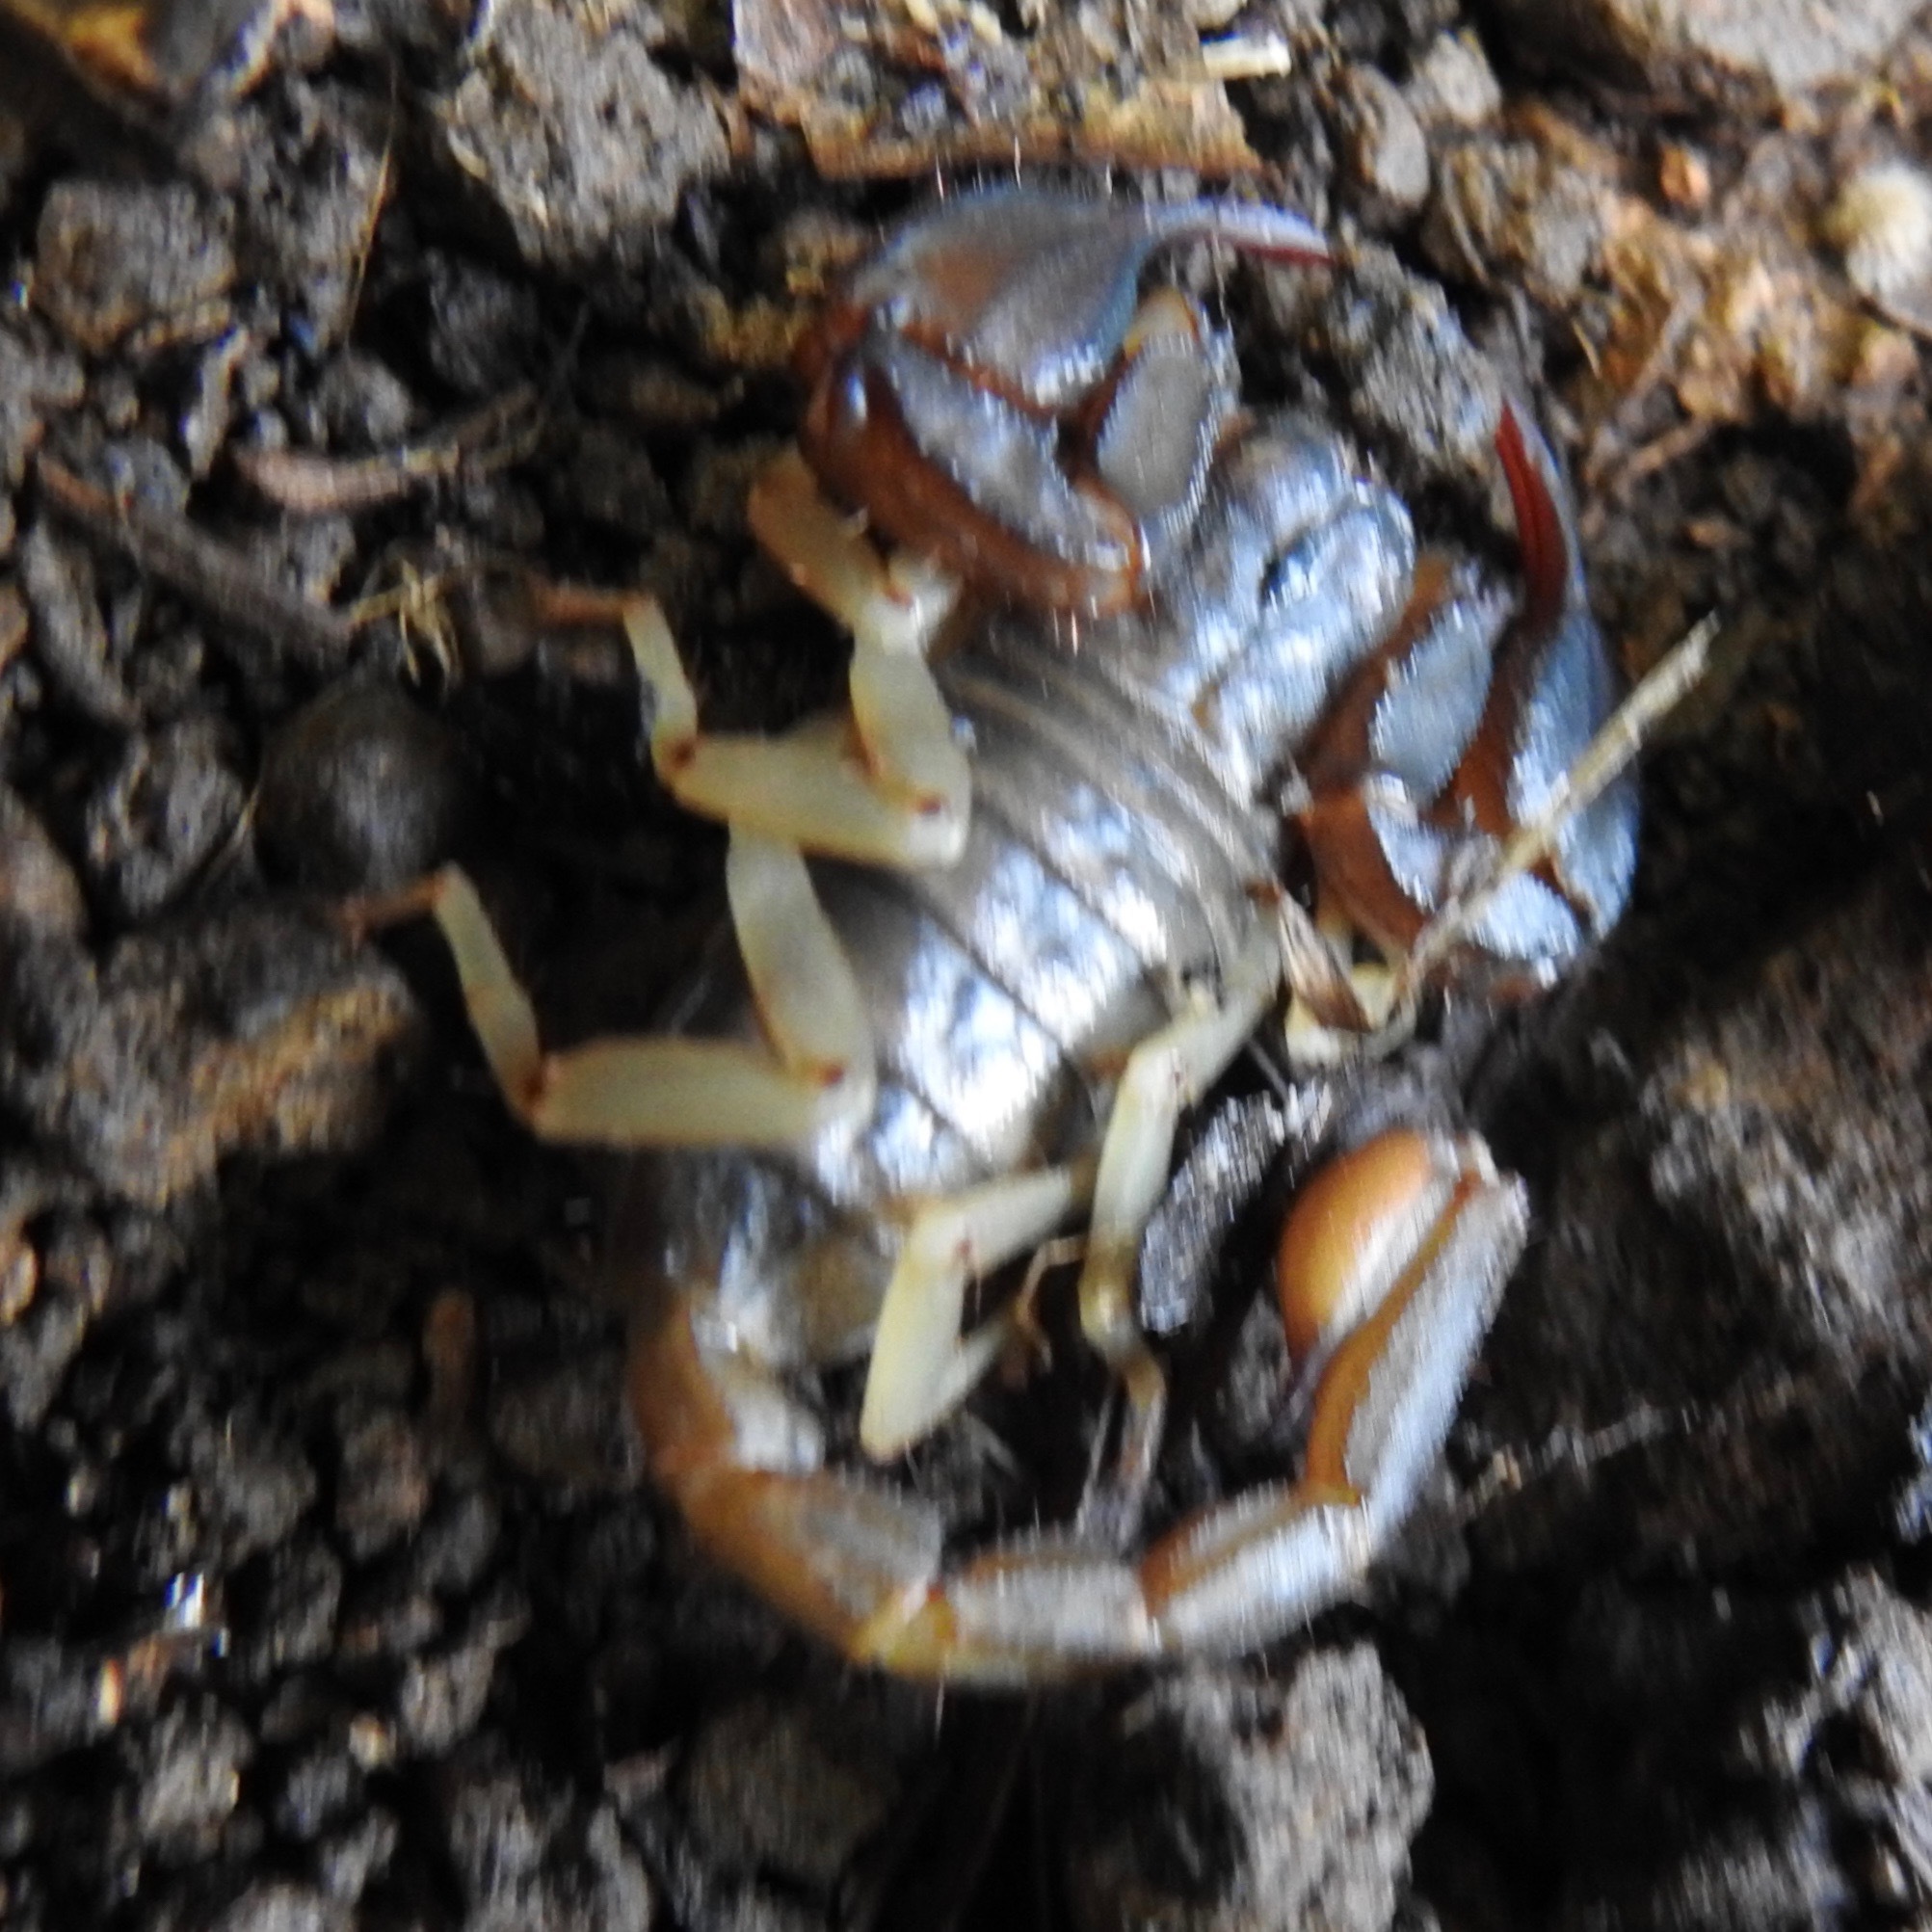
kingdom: Animalia
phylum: Arthropoda
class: Arachnida
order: Scorpiones
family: Chactidae
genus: Uroctonus
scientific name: Uroctonus mordax
